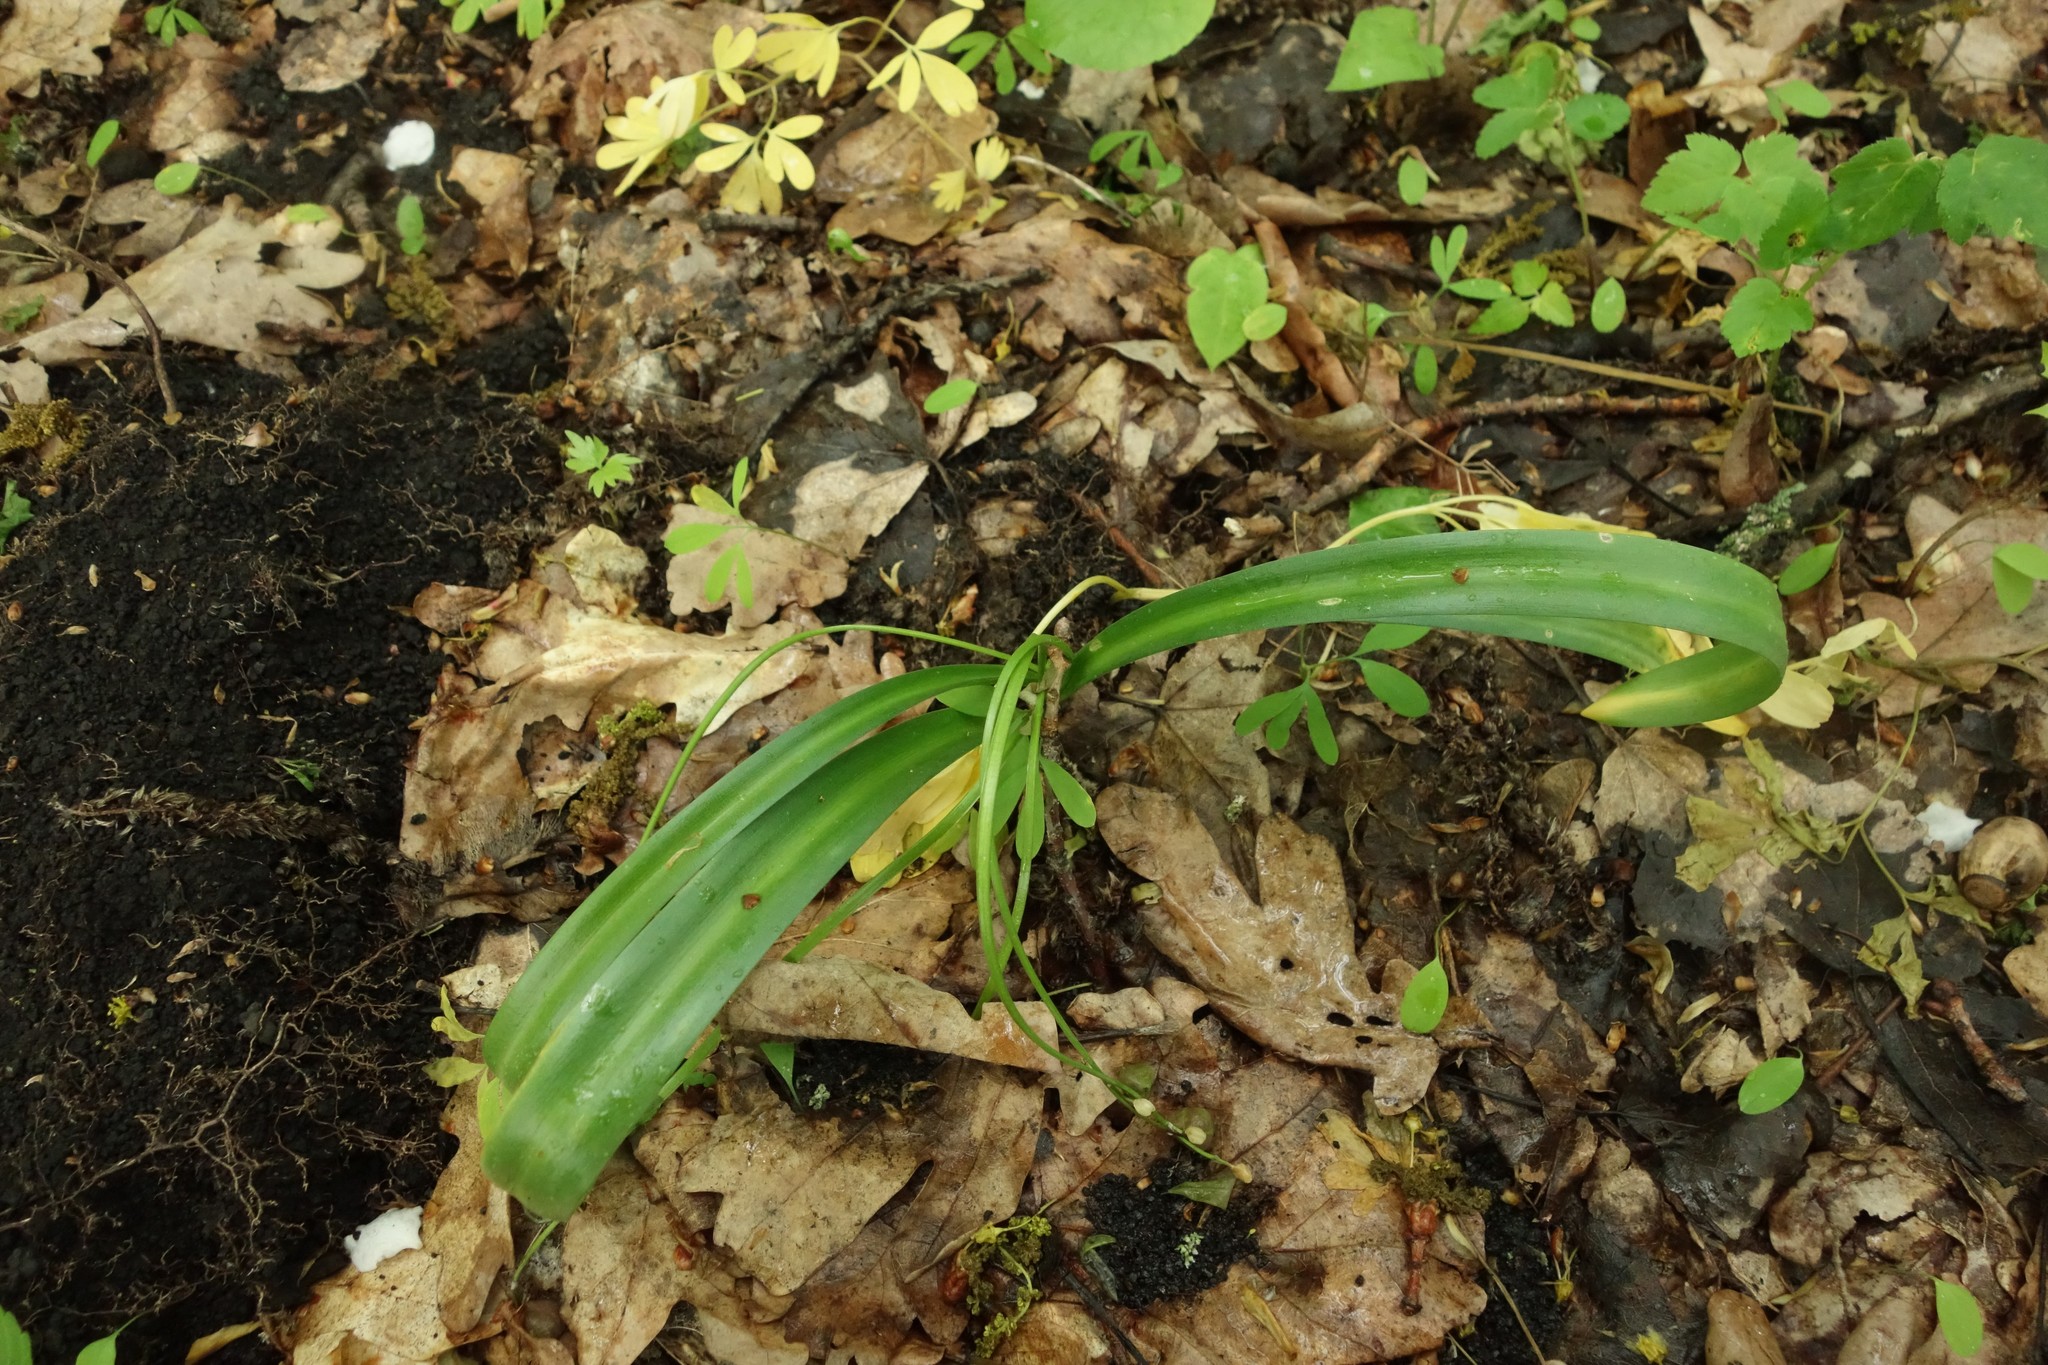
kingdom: Plantae
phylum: Tracheophyta
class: Liliopsida
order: Asparagales
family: Asparagaceae
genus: Scilla
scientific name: Scilla siberica
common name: Siberian squill
